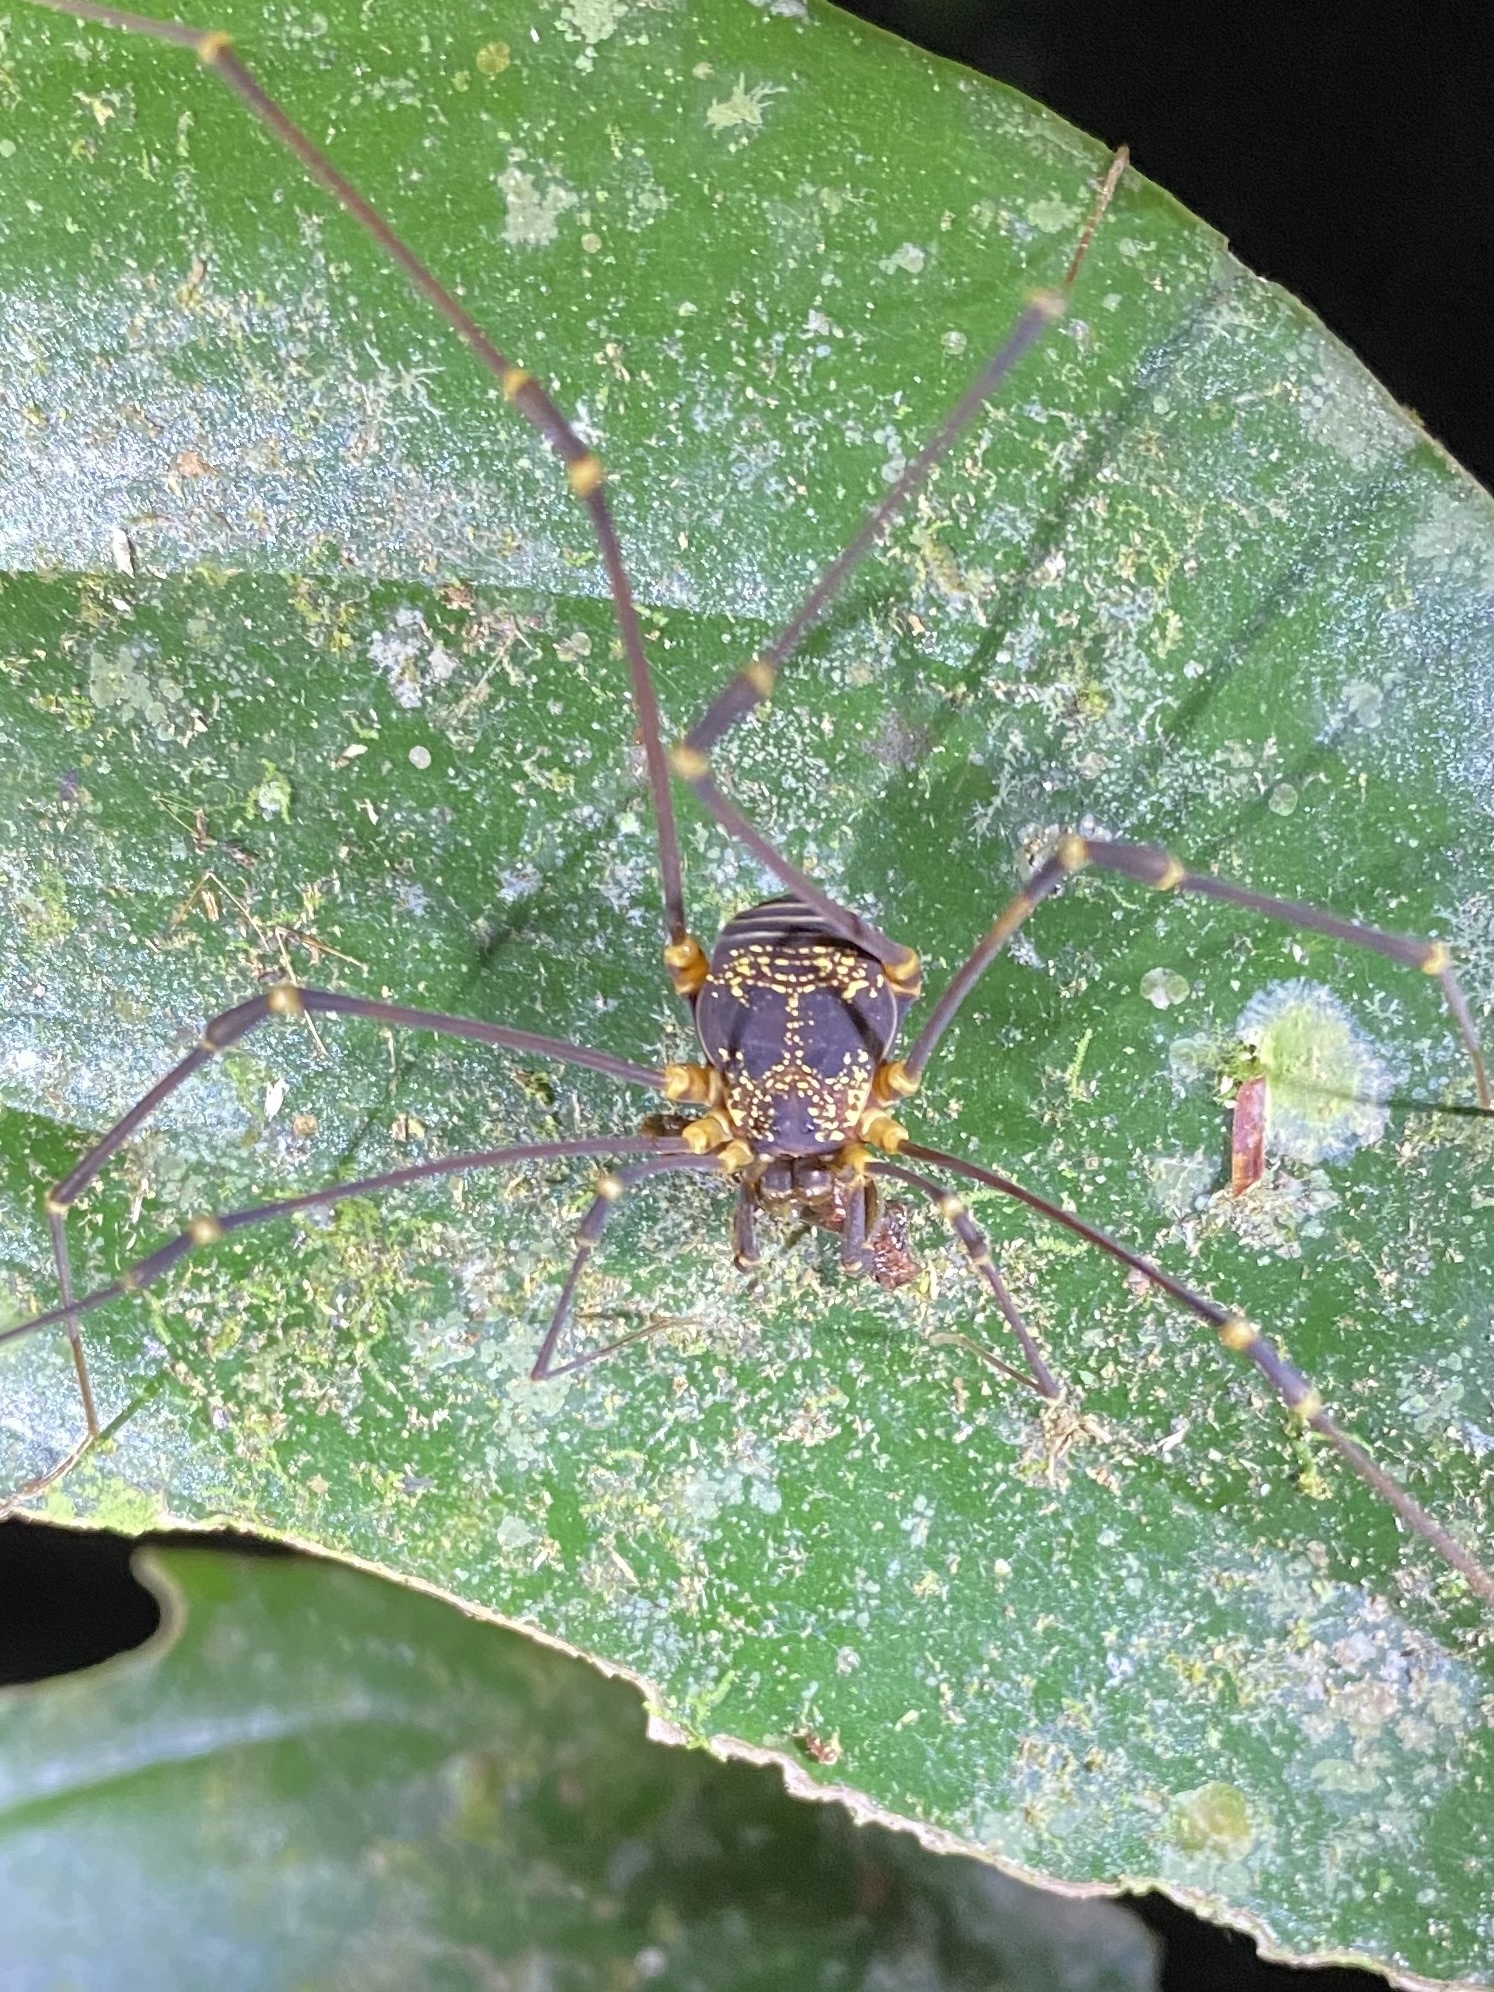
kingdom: Animalia
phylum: Arthropoda
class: Arachnida
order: Opiliones
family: Cosmetidae
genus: Eupoecilaema
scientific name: Eupoecilaema magnum
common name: Harvestmen
